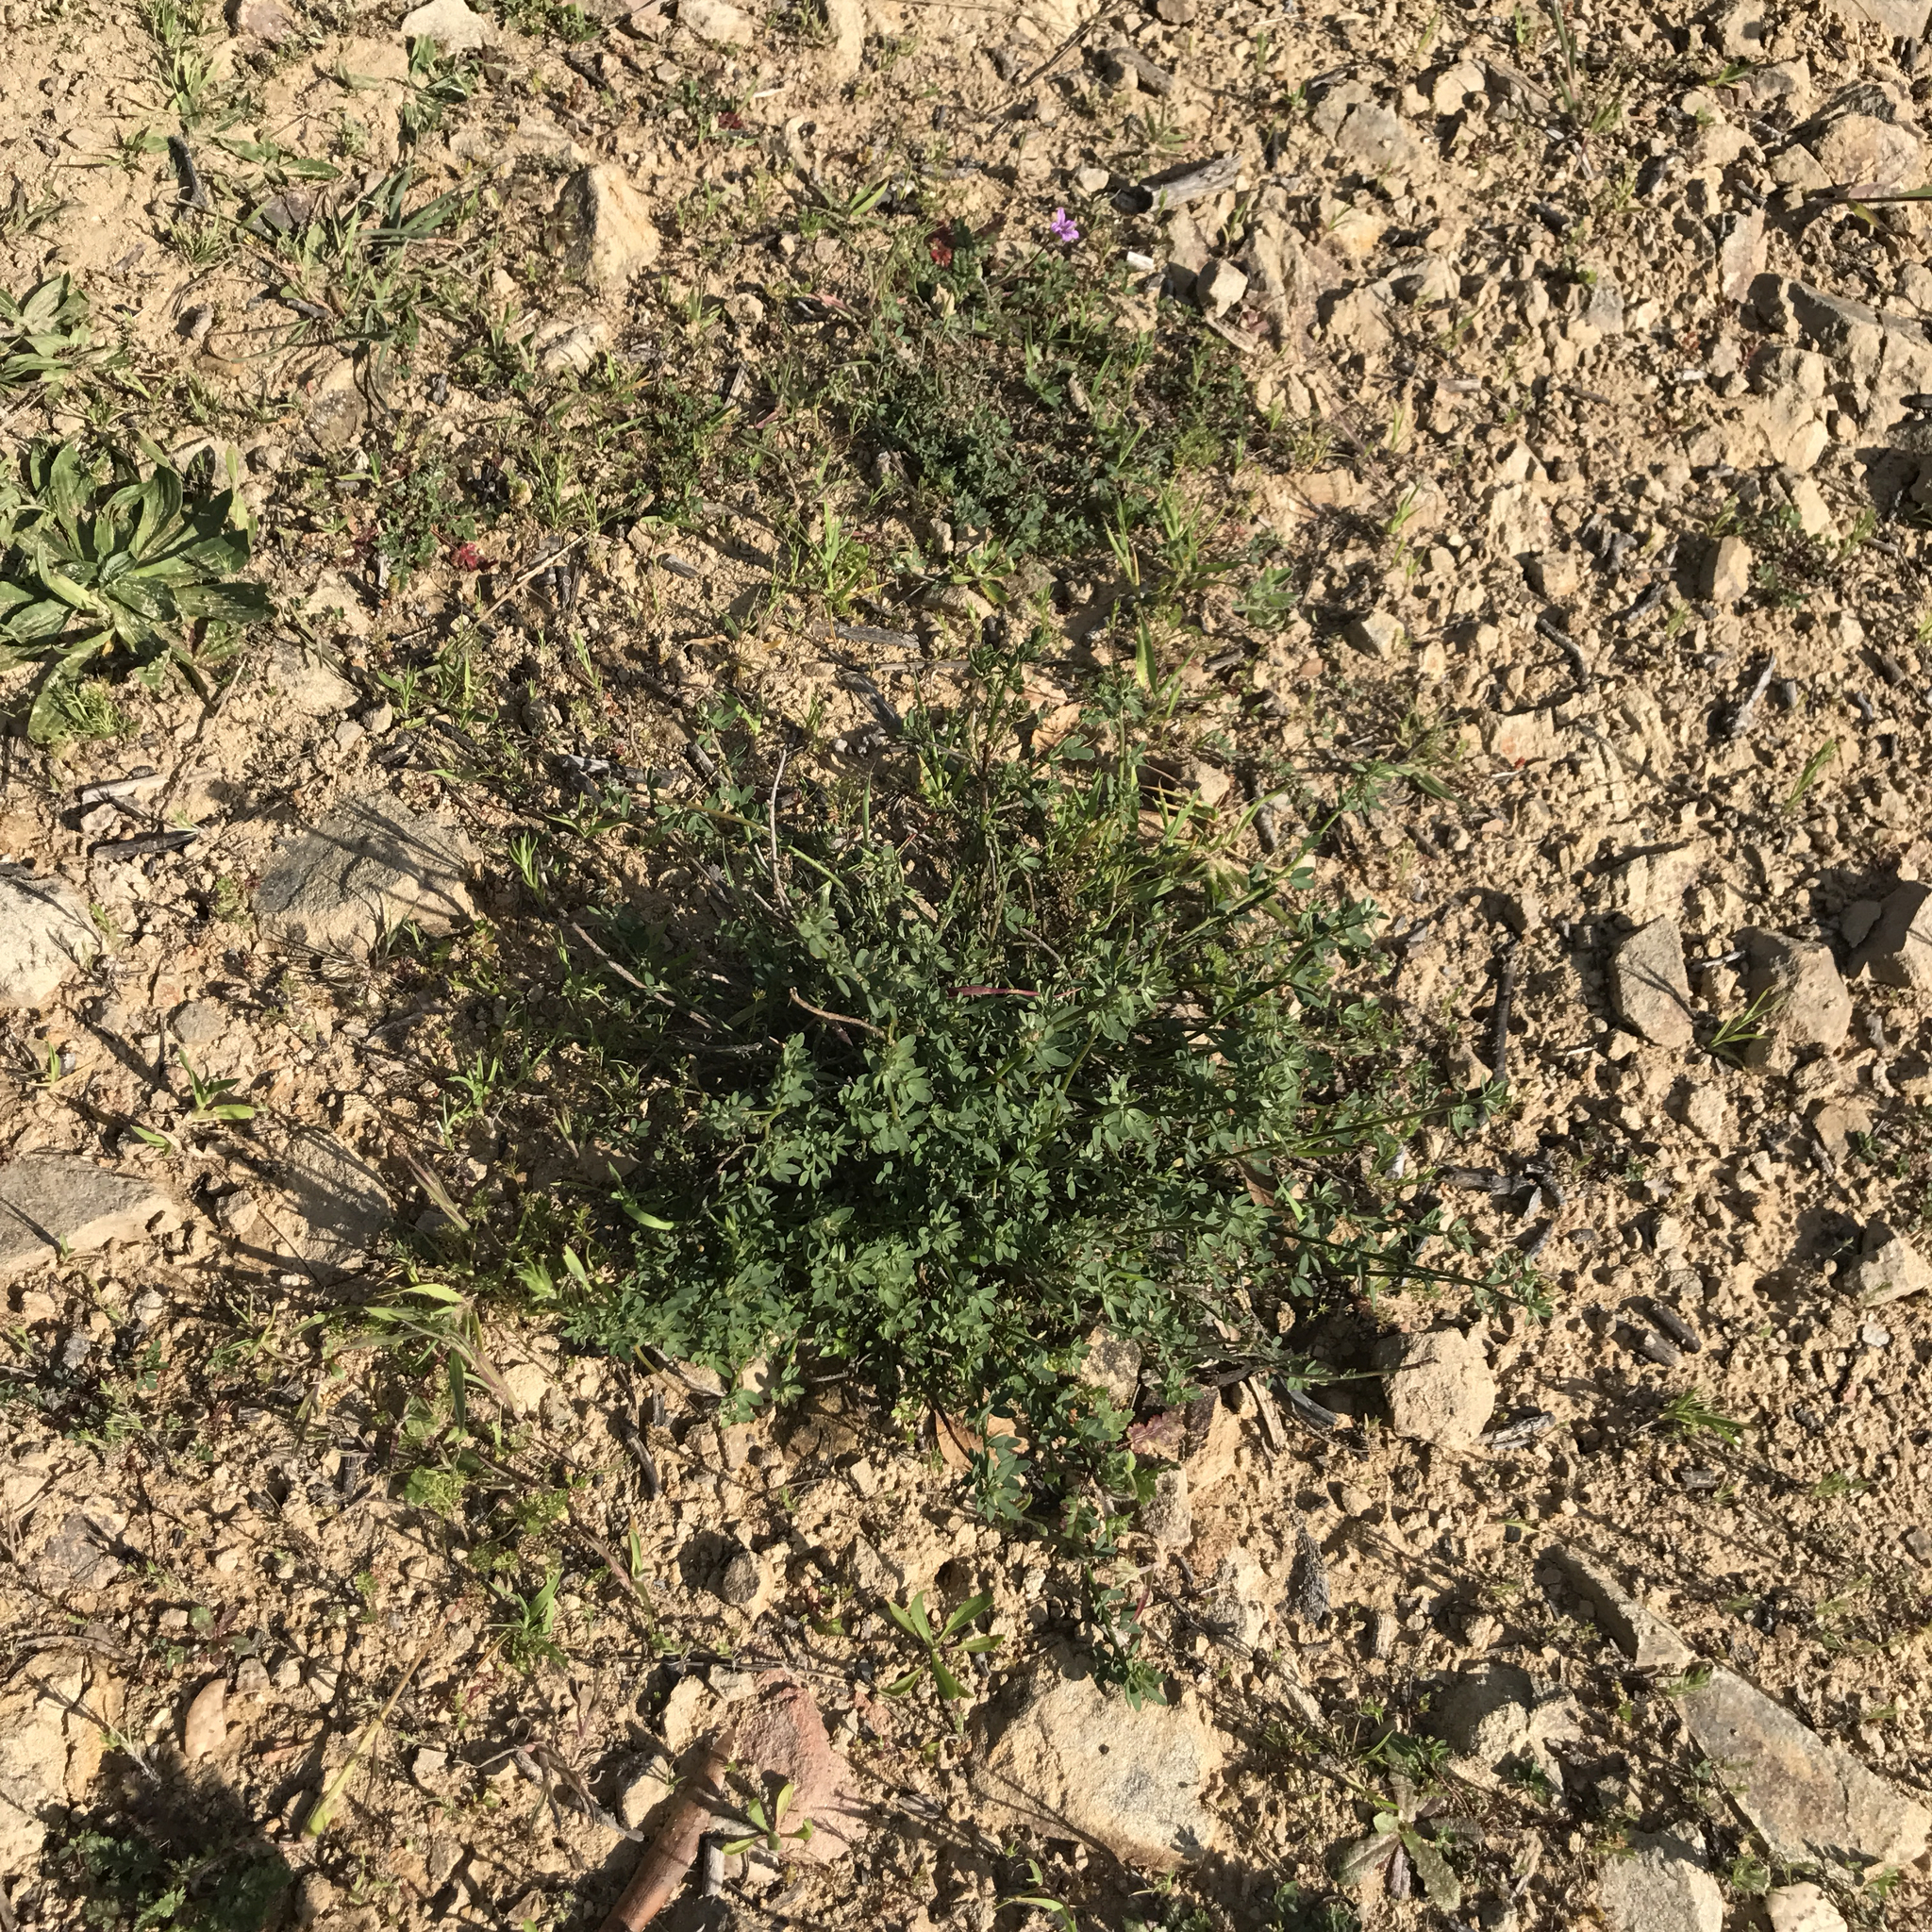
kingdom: Plantae
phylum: Tracheophyta
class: Magnoliopsida
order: Fabales
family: Fabaceae
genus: Acmispon
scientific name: Acmispon glaber
